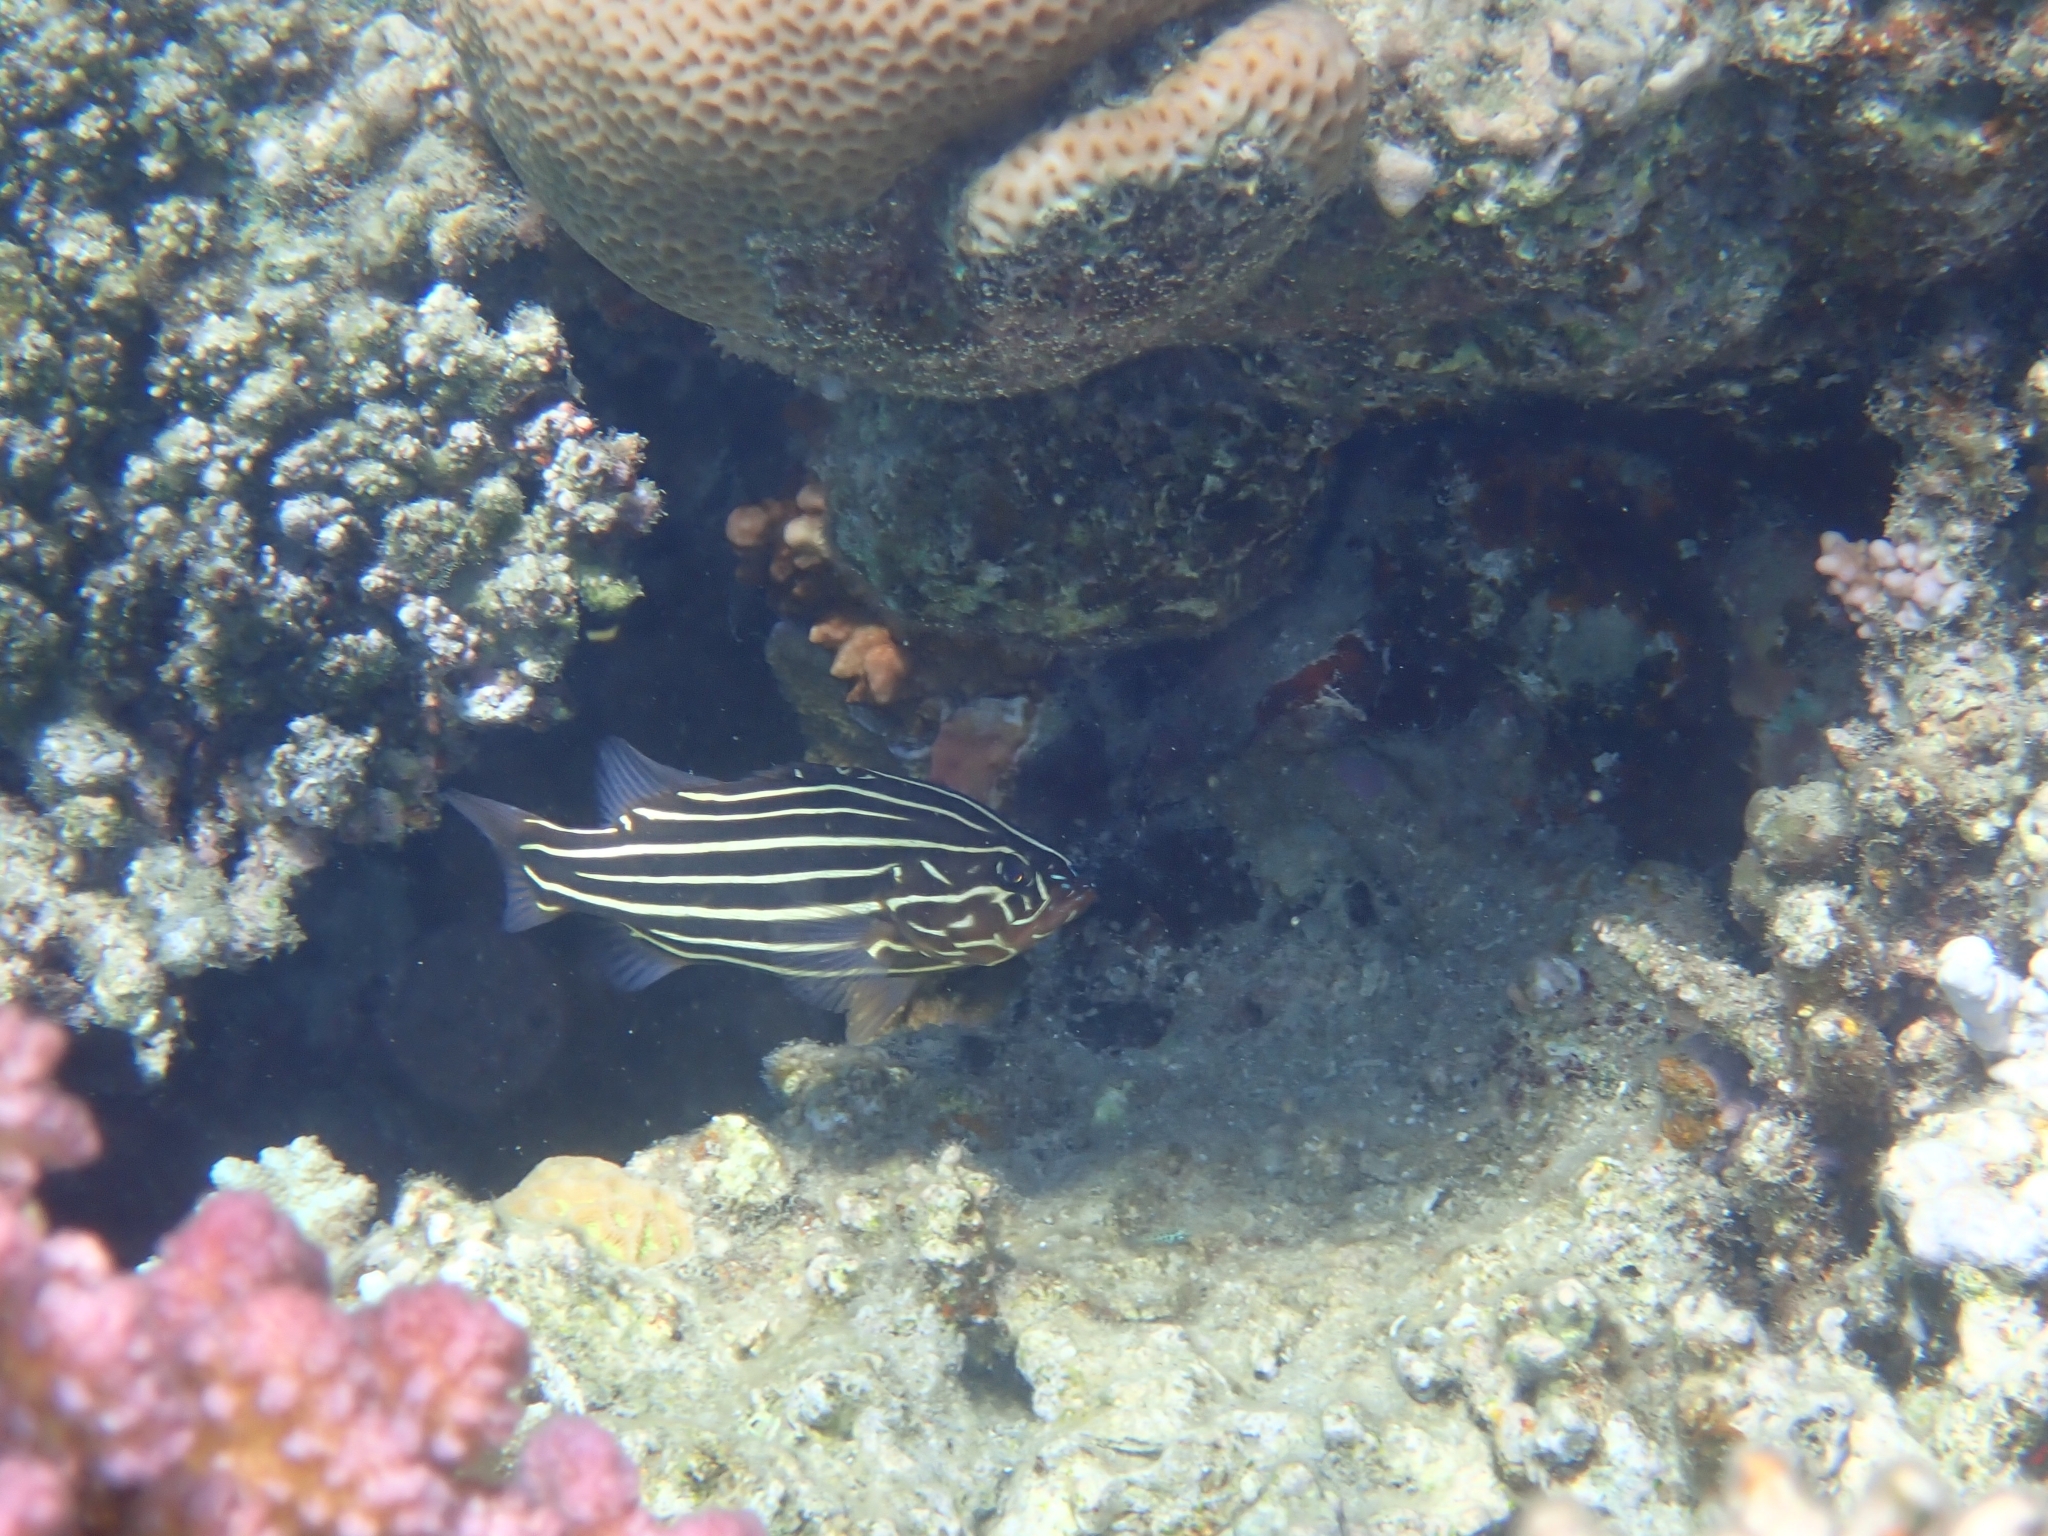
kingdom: Animalia
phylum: Chordata
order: Perciformes
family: Serranidae
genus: Grammistes
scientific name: Grammistes sexlineatus
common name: Sixline soapfish
